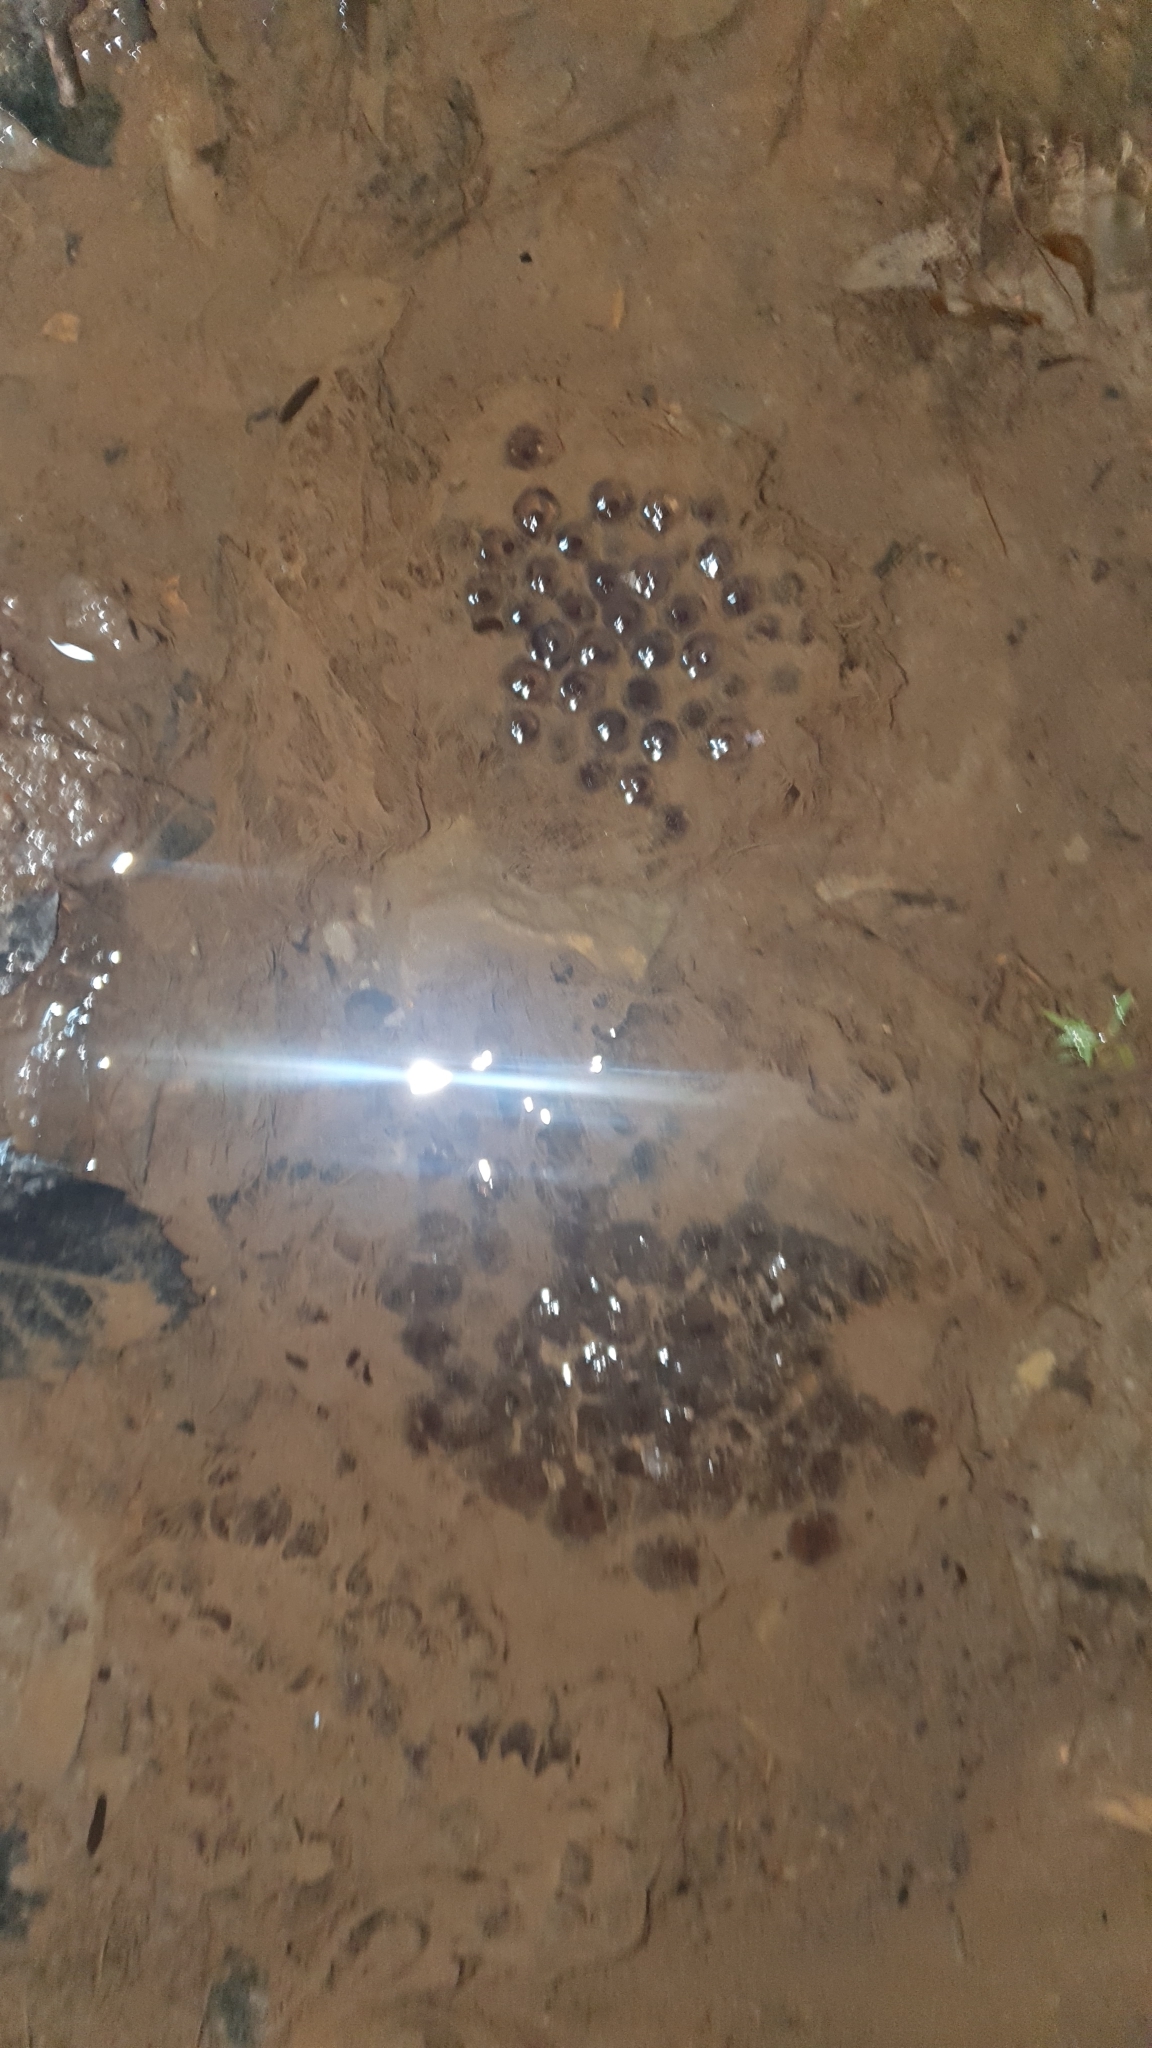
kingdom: Animalia
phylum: Chordata
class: Amphibia
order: Anura
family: Ranidae
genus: Rana
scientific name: Rana temporaria
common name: Common frog
